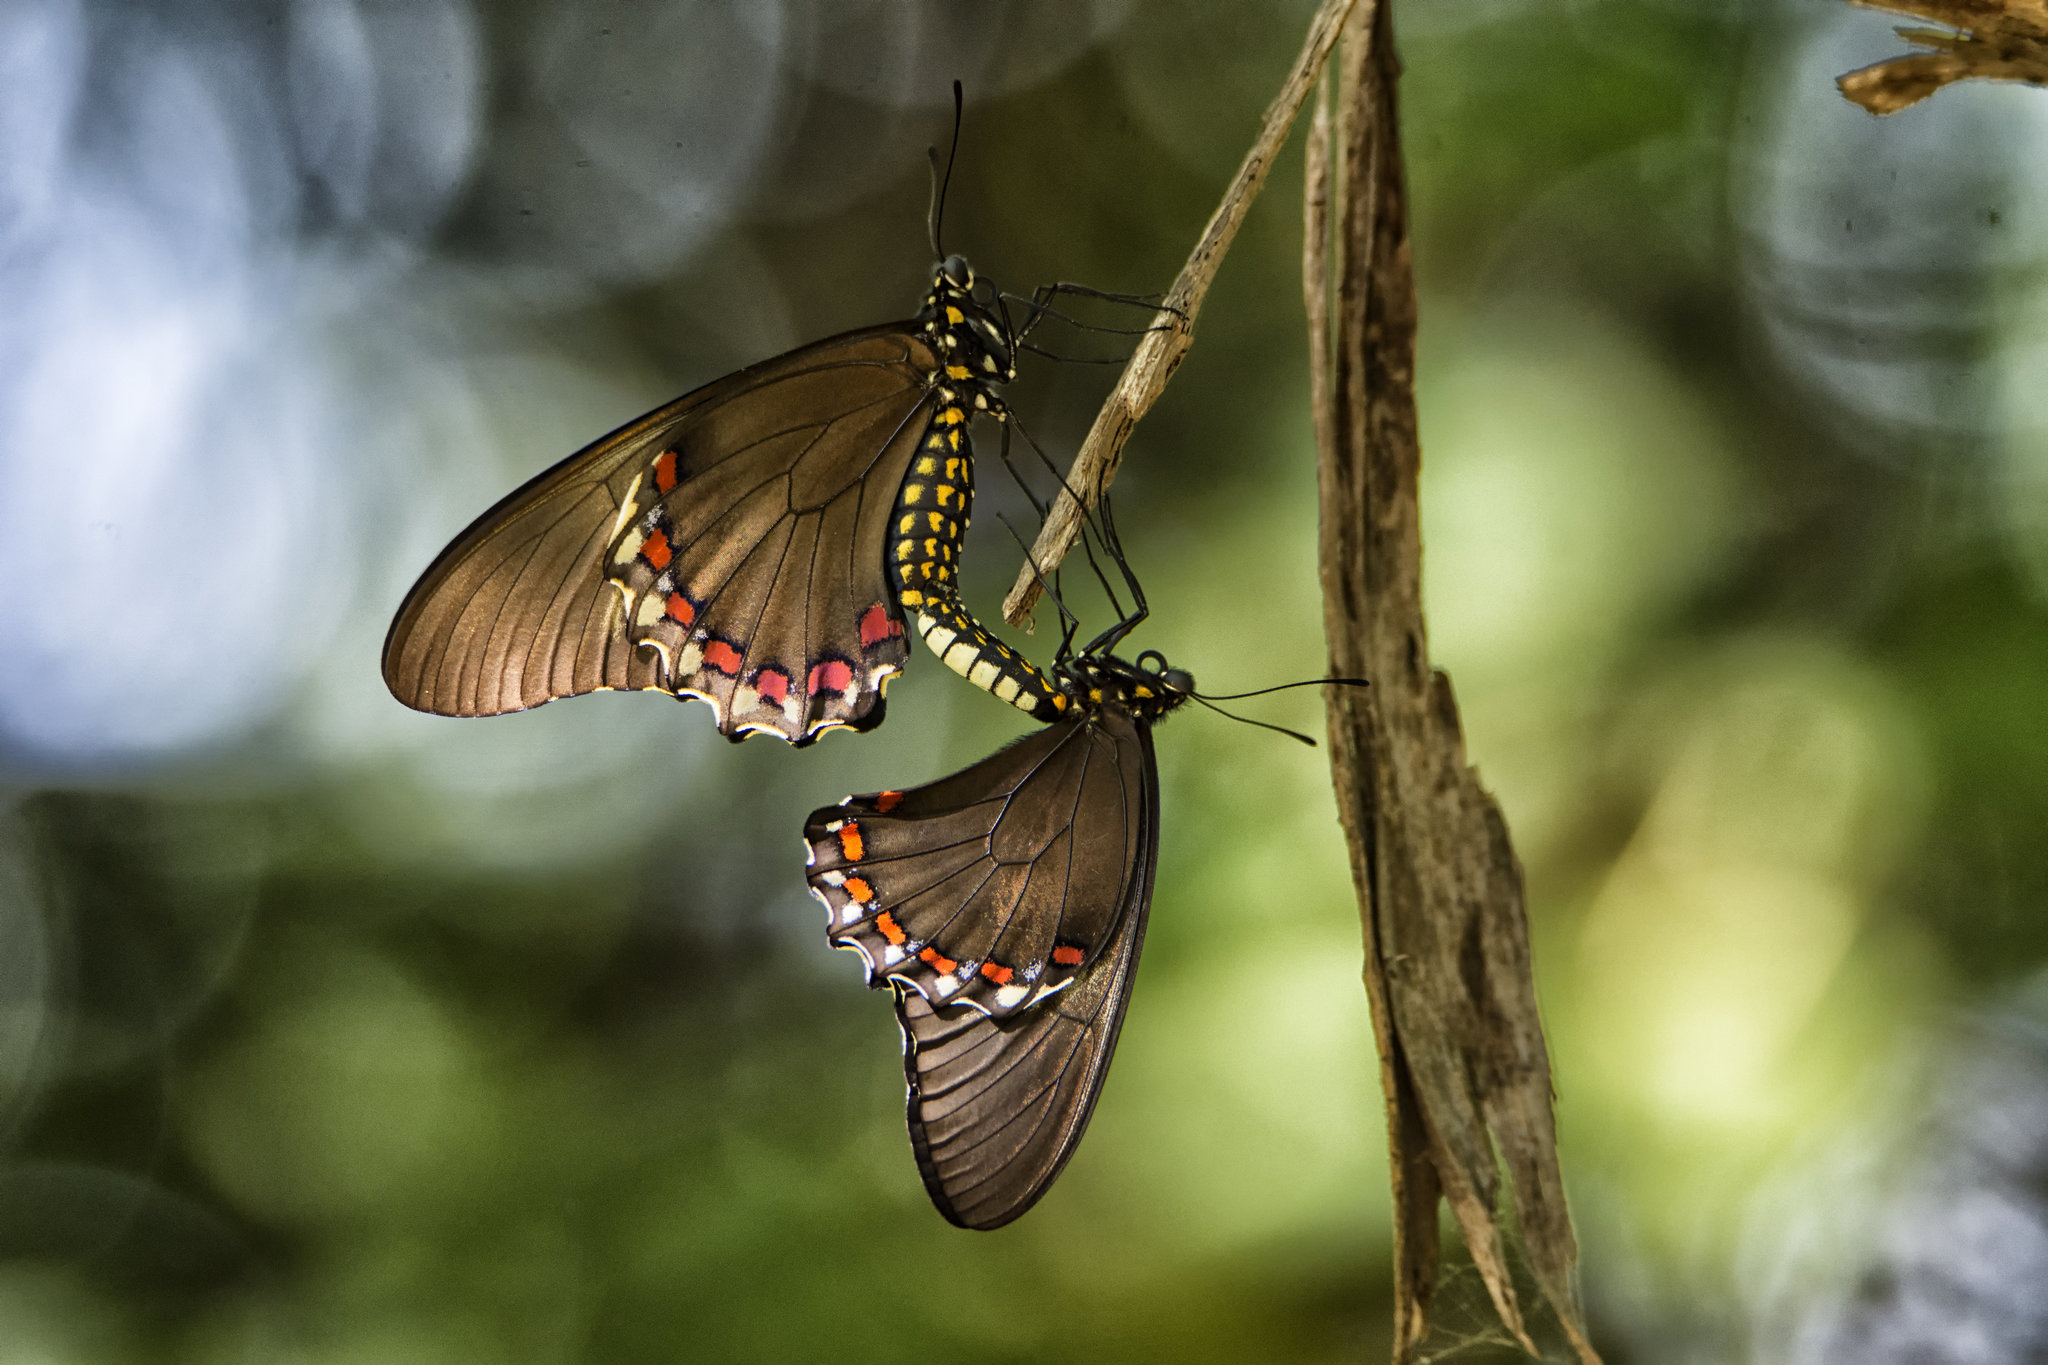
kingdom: Animalia
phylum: Arthropoda
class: Insecta
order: Lepidoptera
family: Papilionidae
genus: Battus
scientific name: Battus eracon
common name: Colima swallowtail
